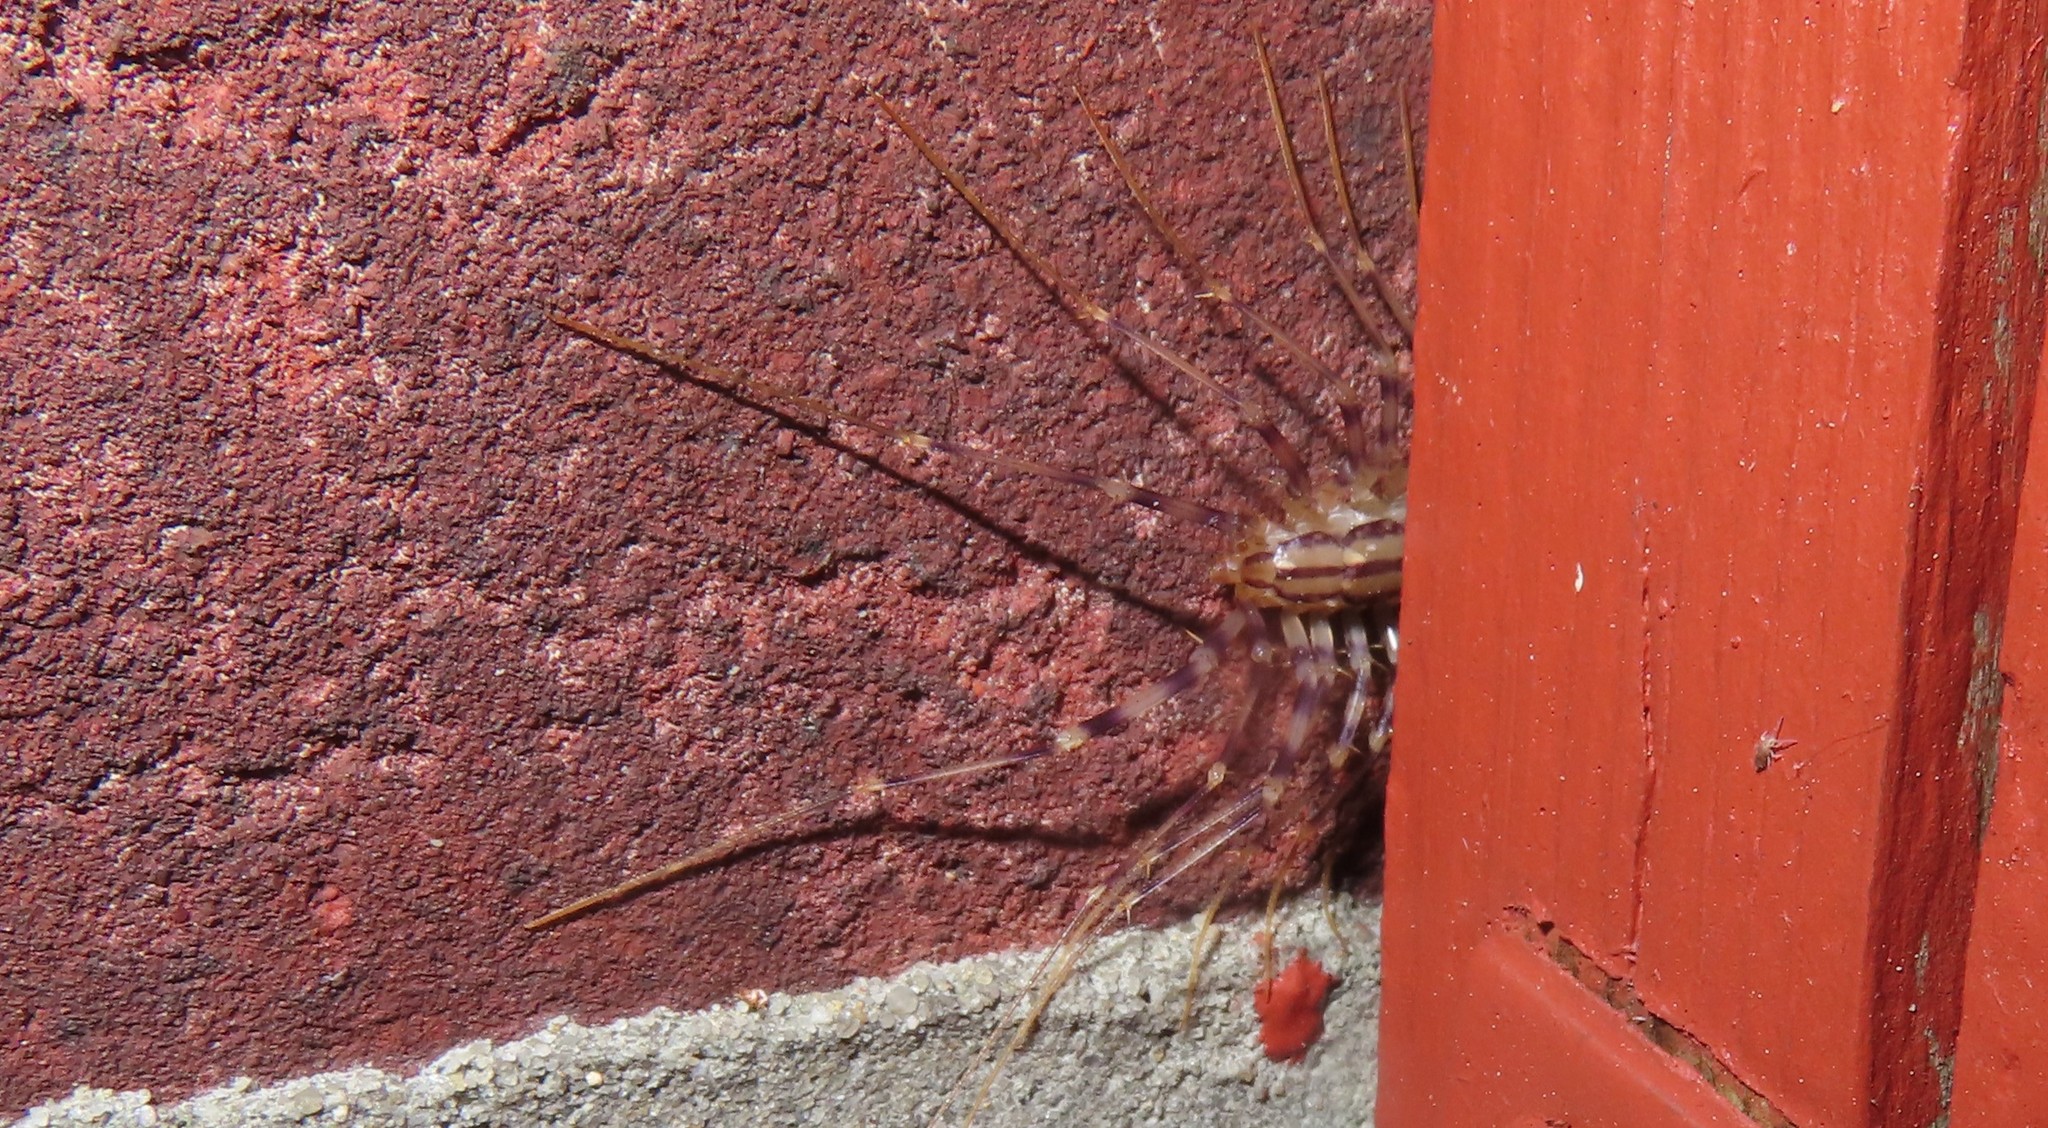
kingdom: Animalia
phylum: Arthropoda
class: Chilopoda
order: Scutigeromorpha
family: Scutigeridae
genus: Scutigera
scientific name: Scutigera coleoptrata
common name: House centipede
